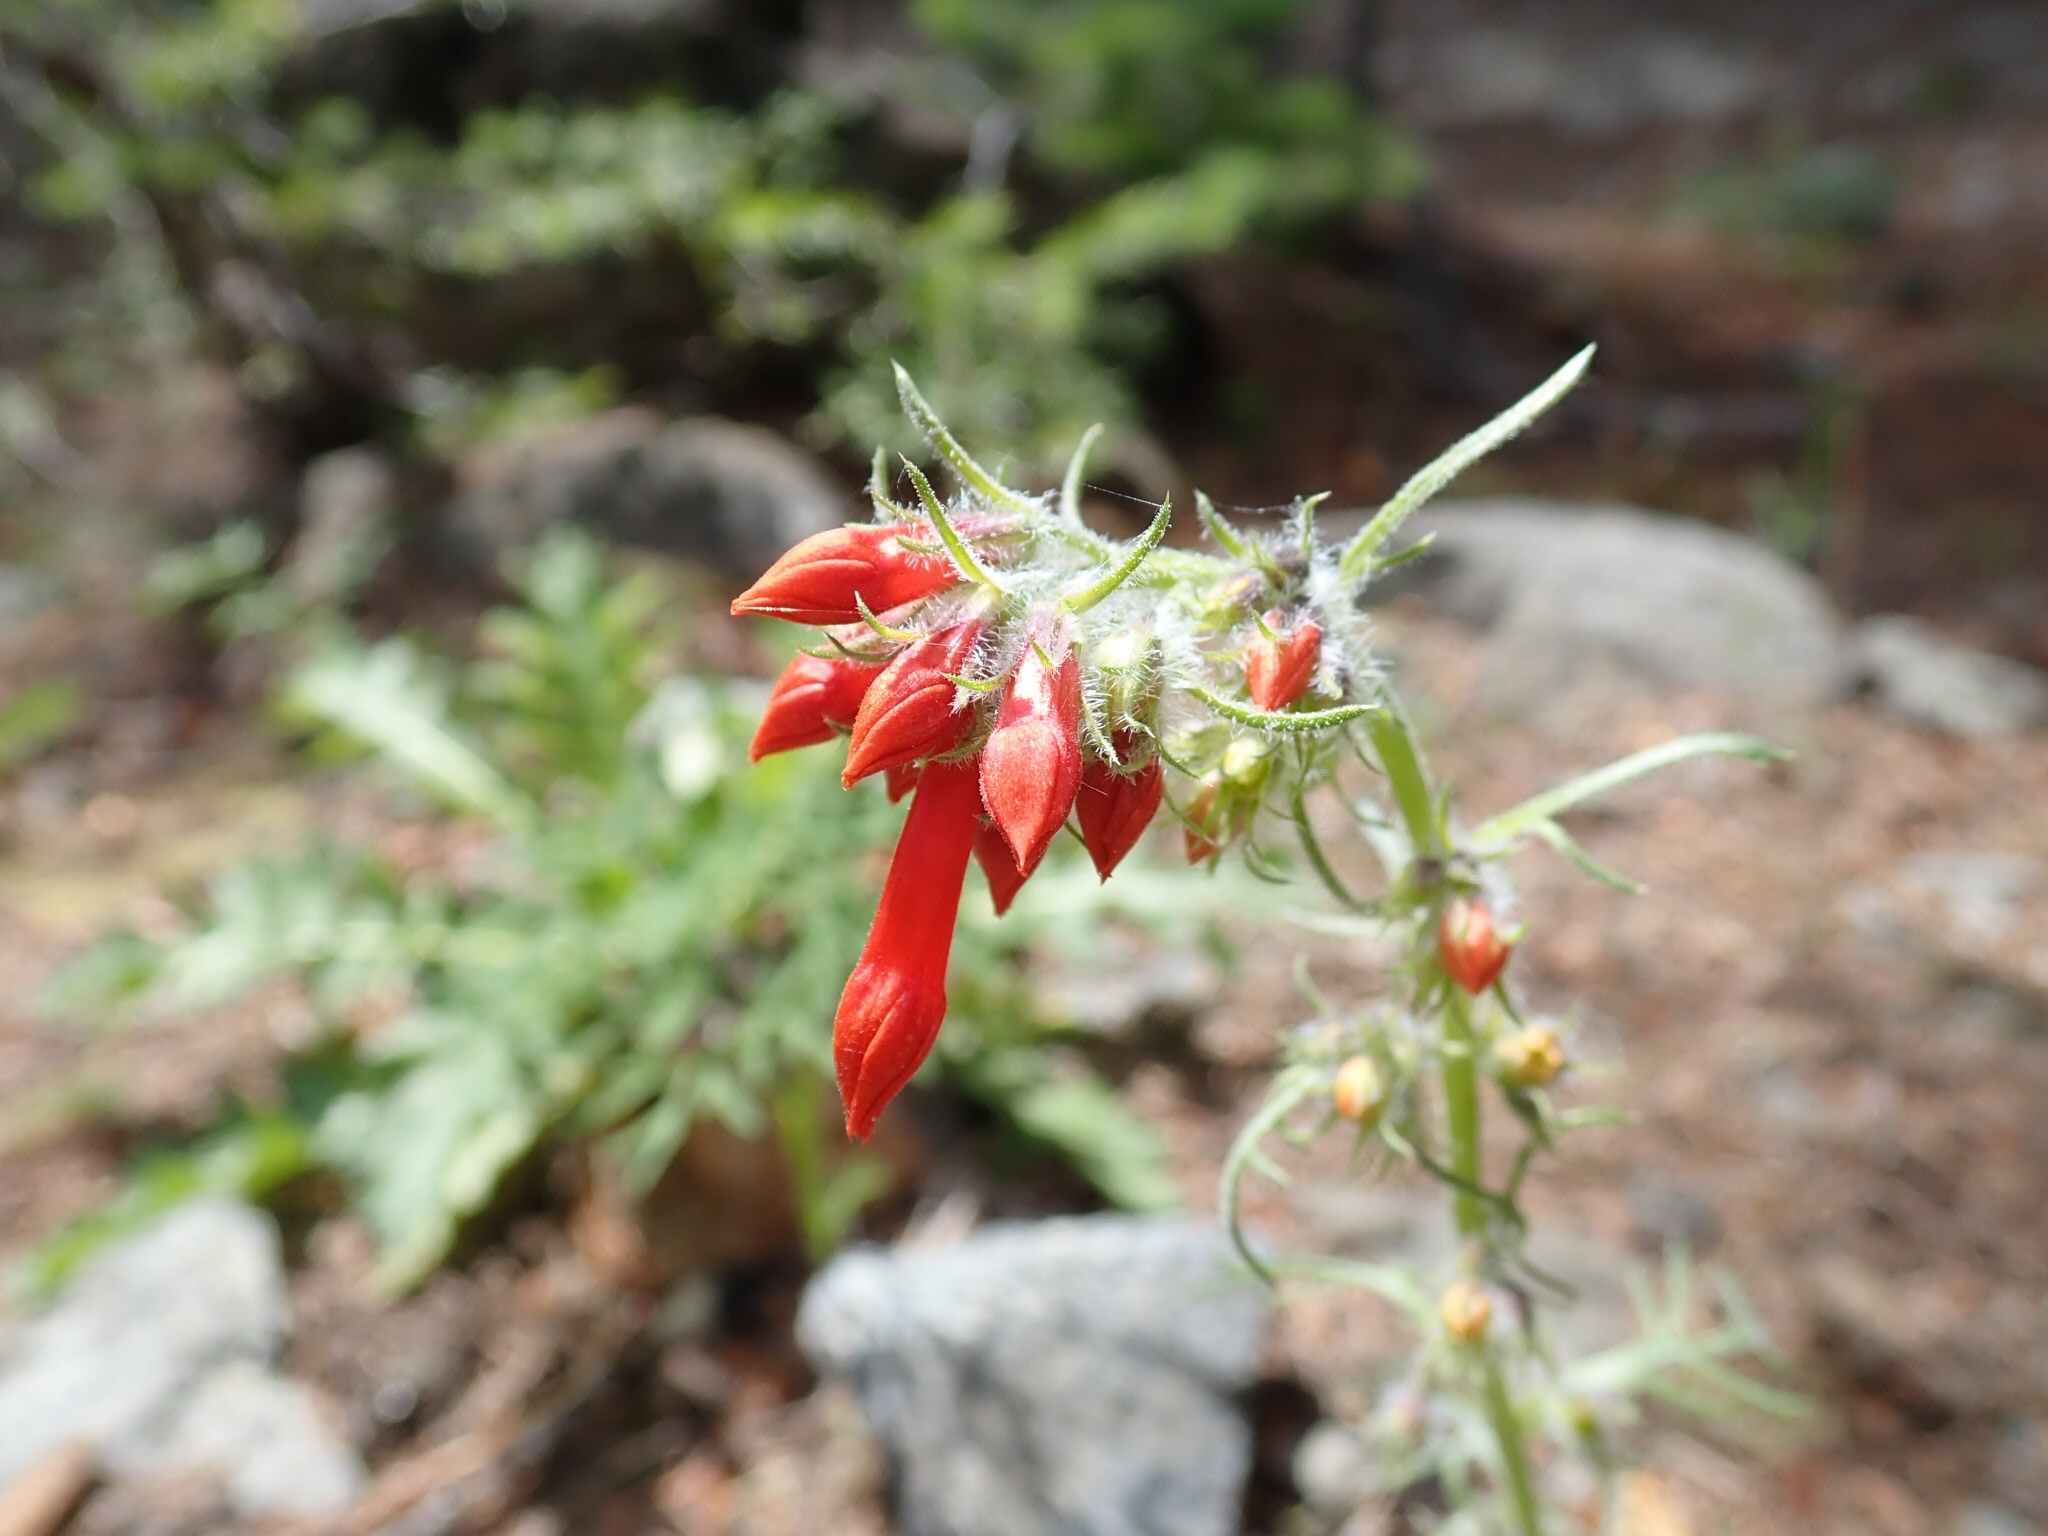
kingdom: Plantae
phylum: Tracheophyta
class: Magnoliopsida
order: Ericales
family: Polemoniaceae
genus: Ipomopsis
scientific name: Ipomopsis aggregata
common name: Scarlet gilia
